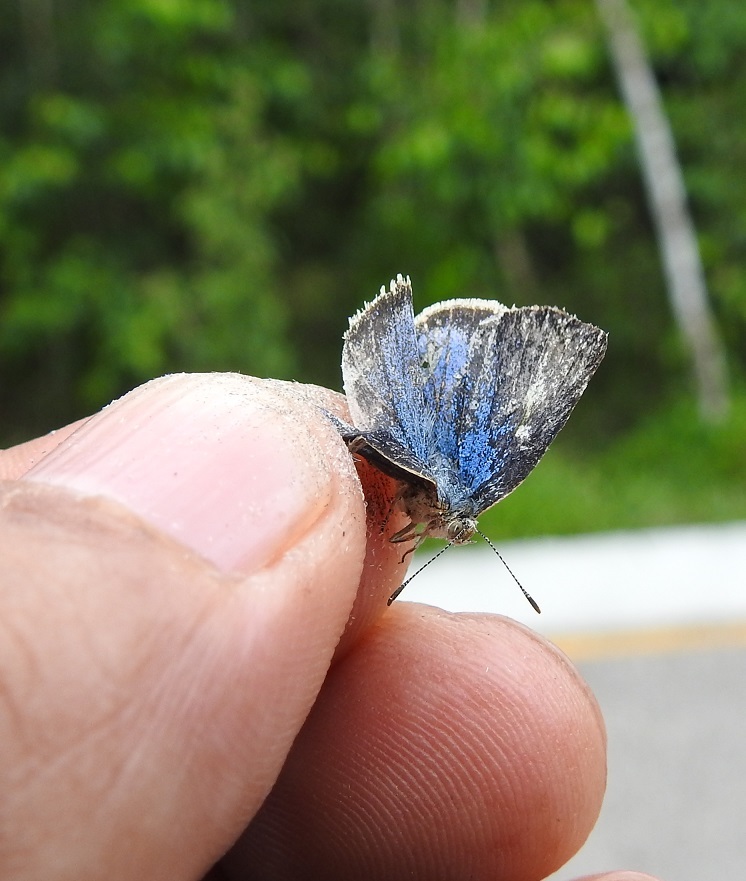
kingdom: Animalia
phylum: Arthropoda
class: Insecta
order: Lepidoptera
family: Lycaenidae
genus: Arawacus
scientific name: Arawacus
